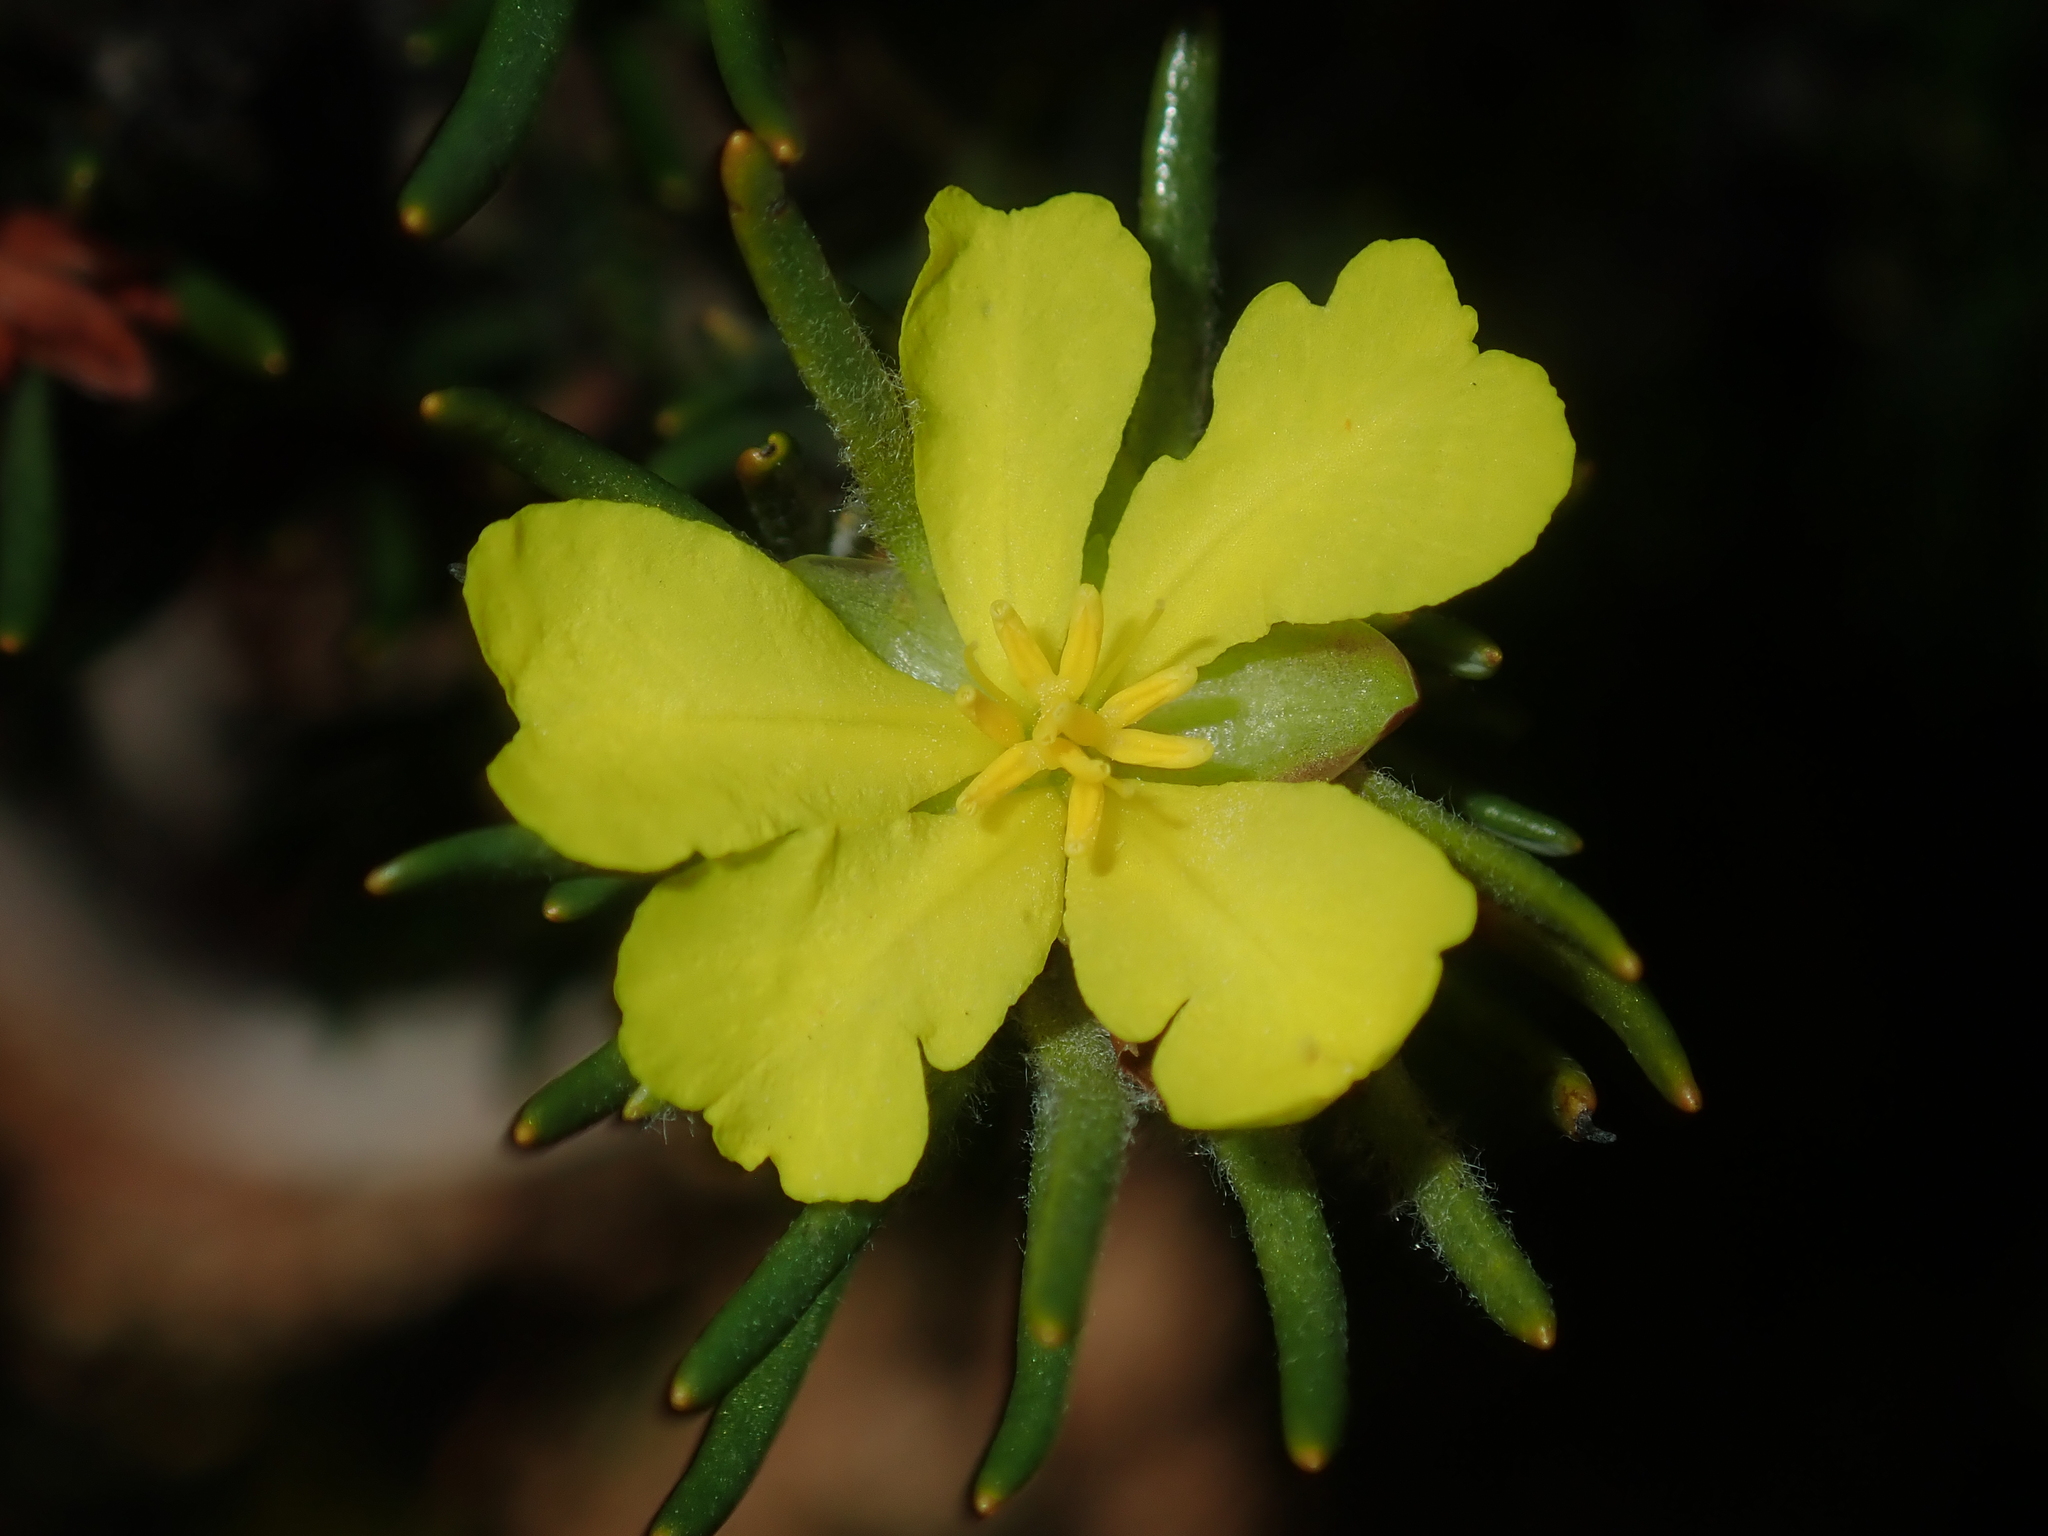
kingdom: Plantae
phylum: Tracheophyta
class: Magnoliopsida
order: Dilleniales
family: Dilleniaceae
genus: Hibbertia
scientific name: Hibbertia desmophylla
